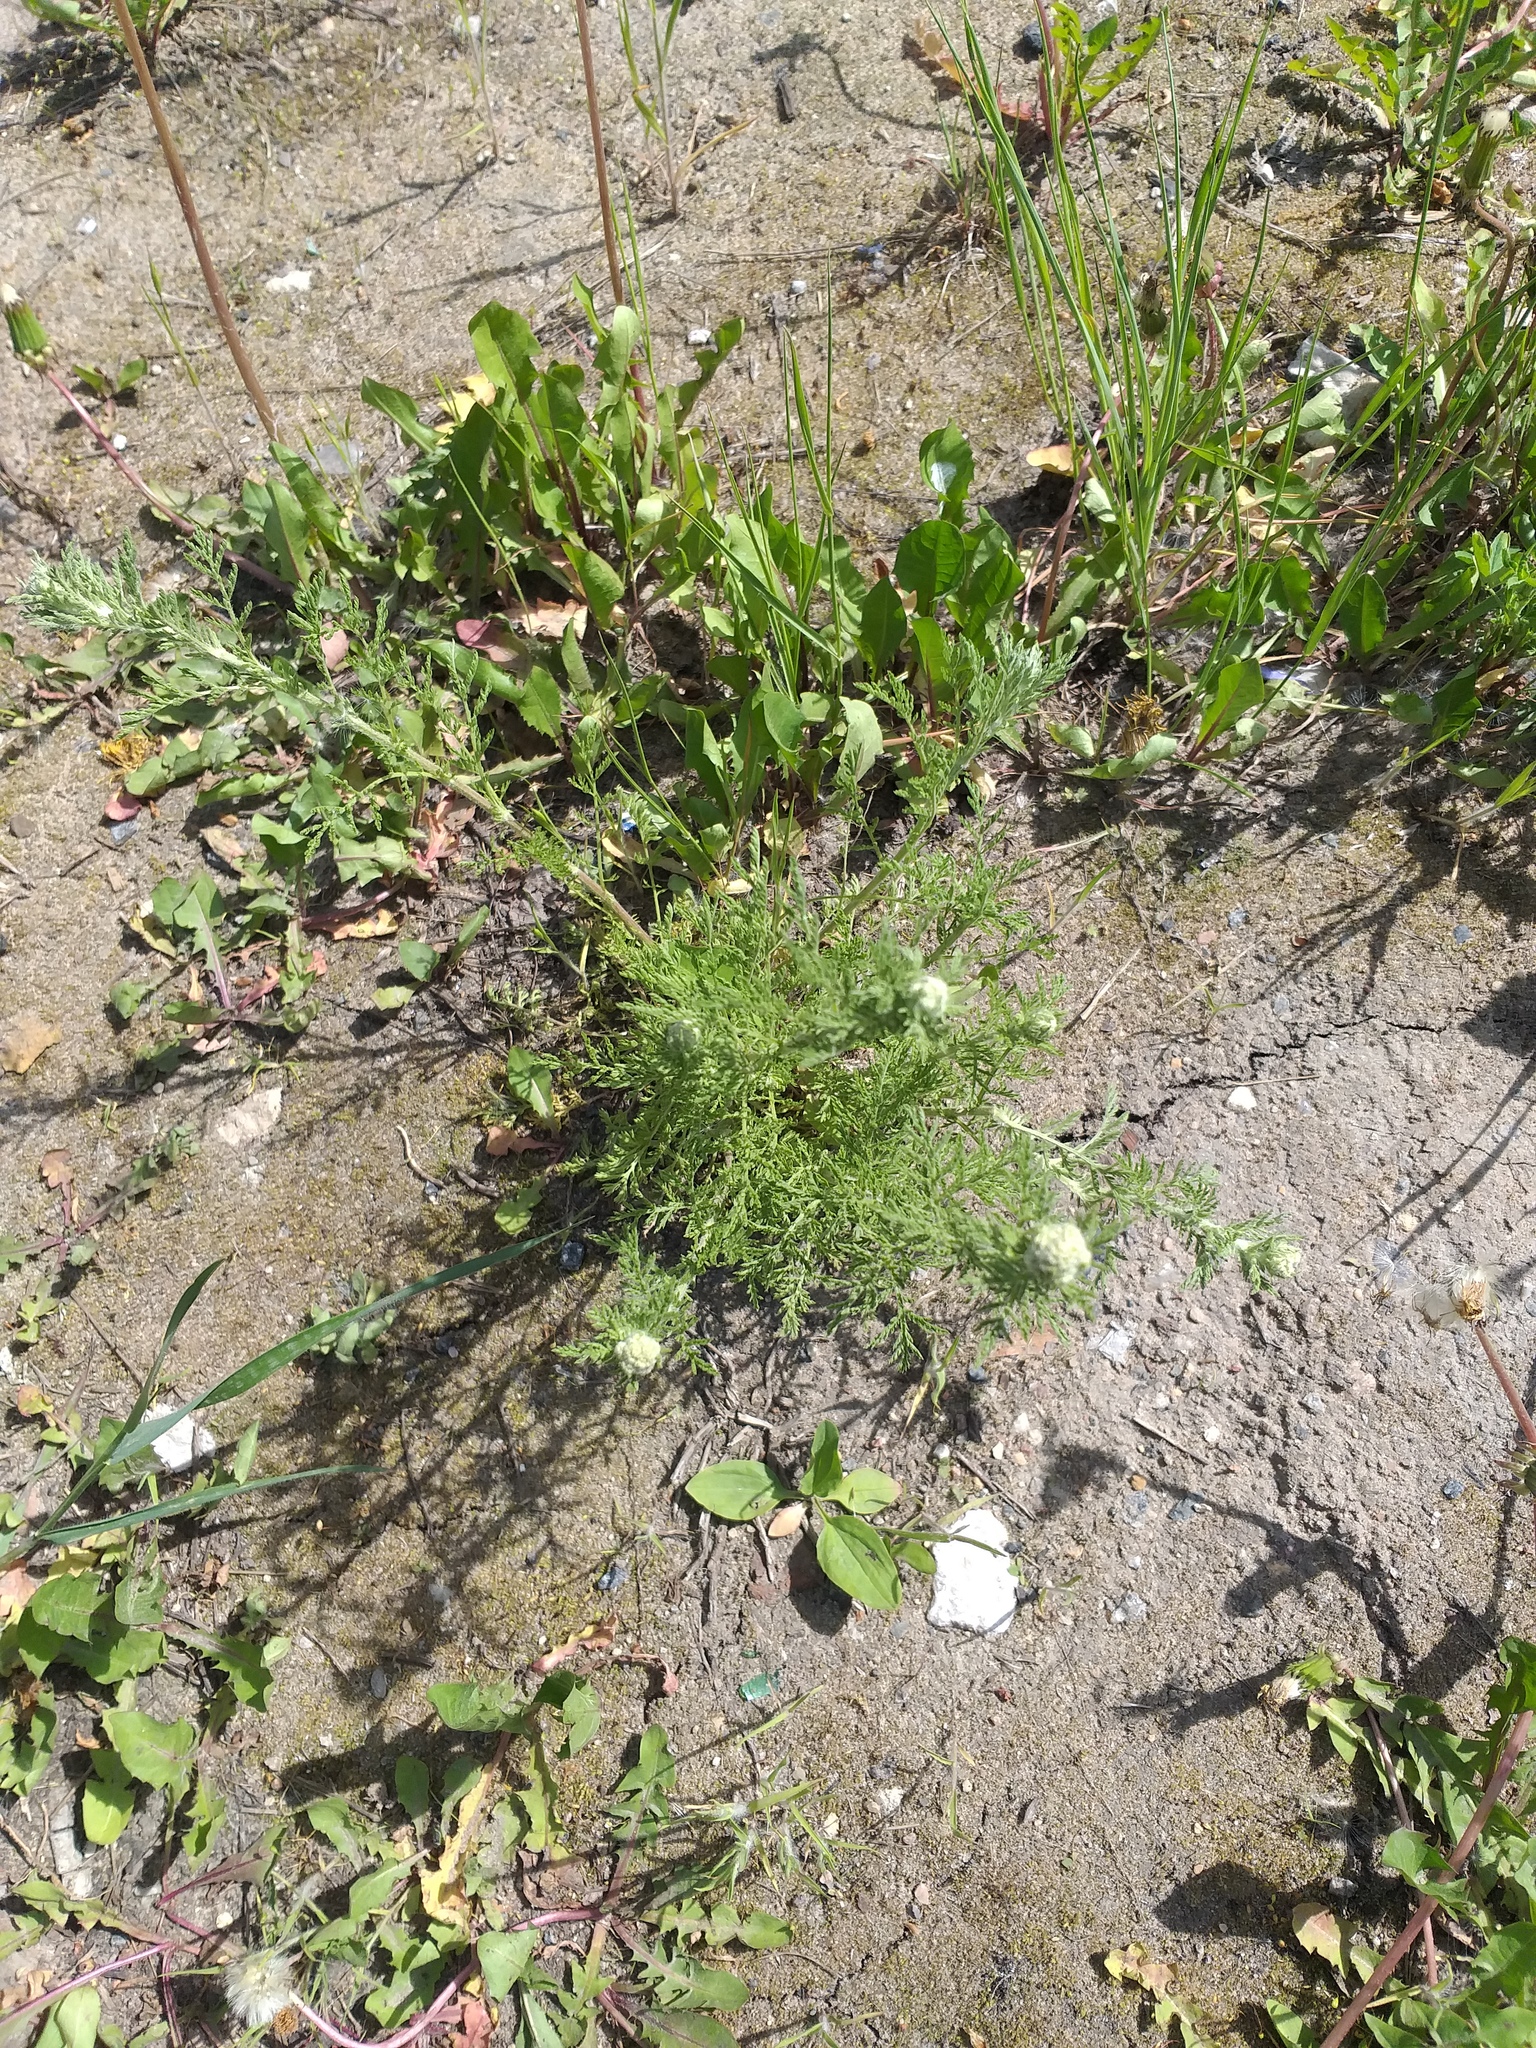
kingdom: Plantae
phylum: Tracheophyta
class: Magnoliopsida
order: Asterales
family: Asteraceae
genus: Achillea
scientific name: Achillea nobilis
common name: Noble yarrow
